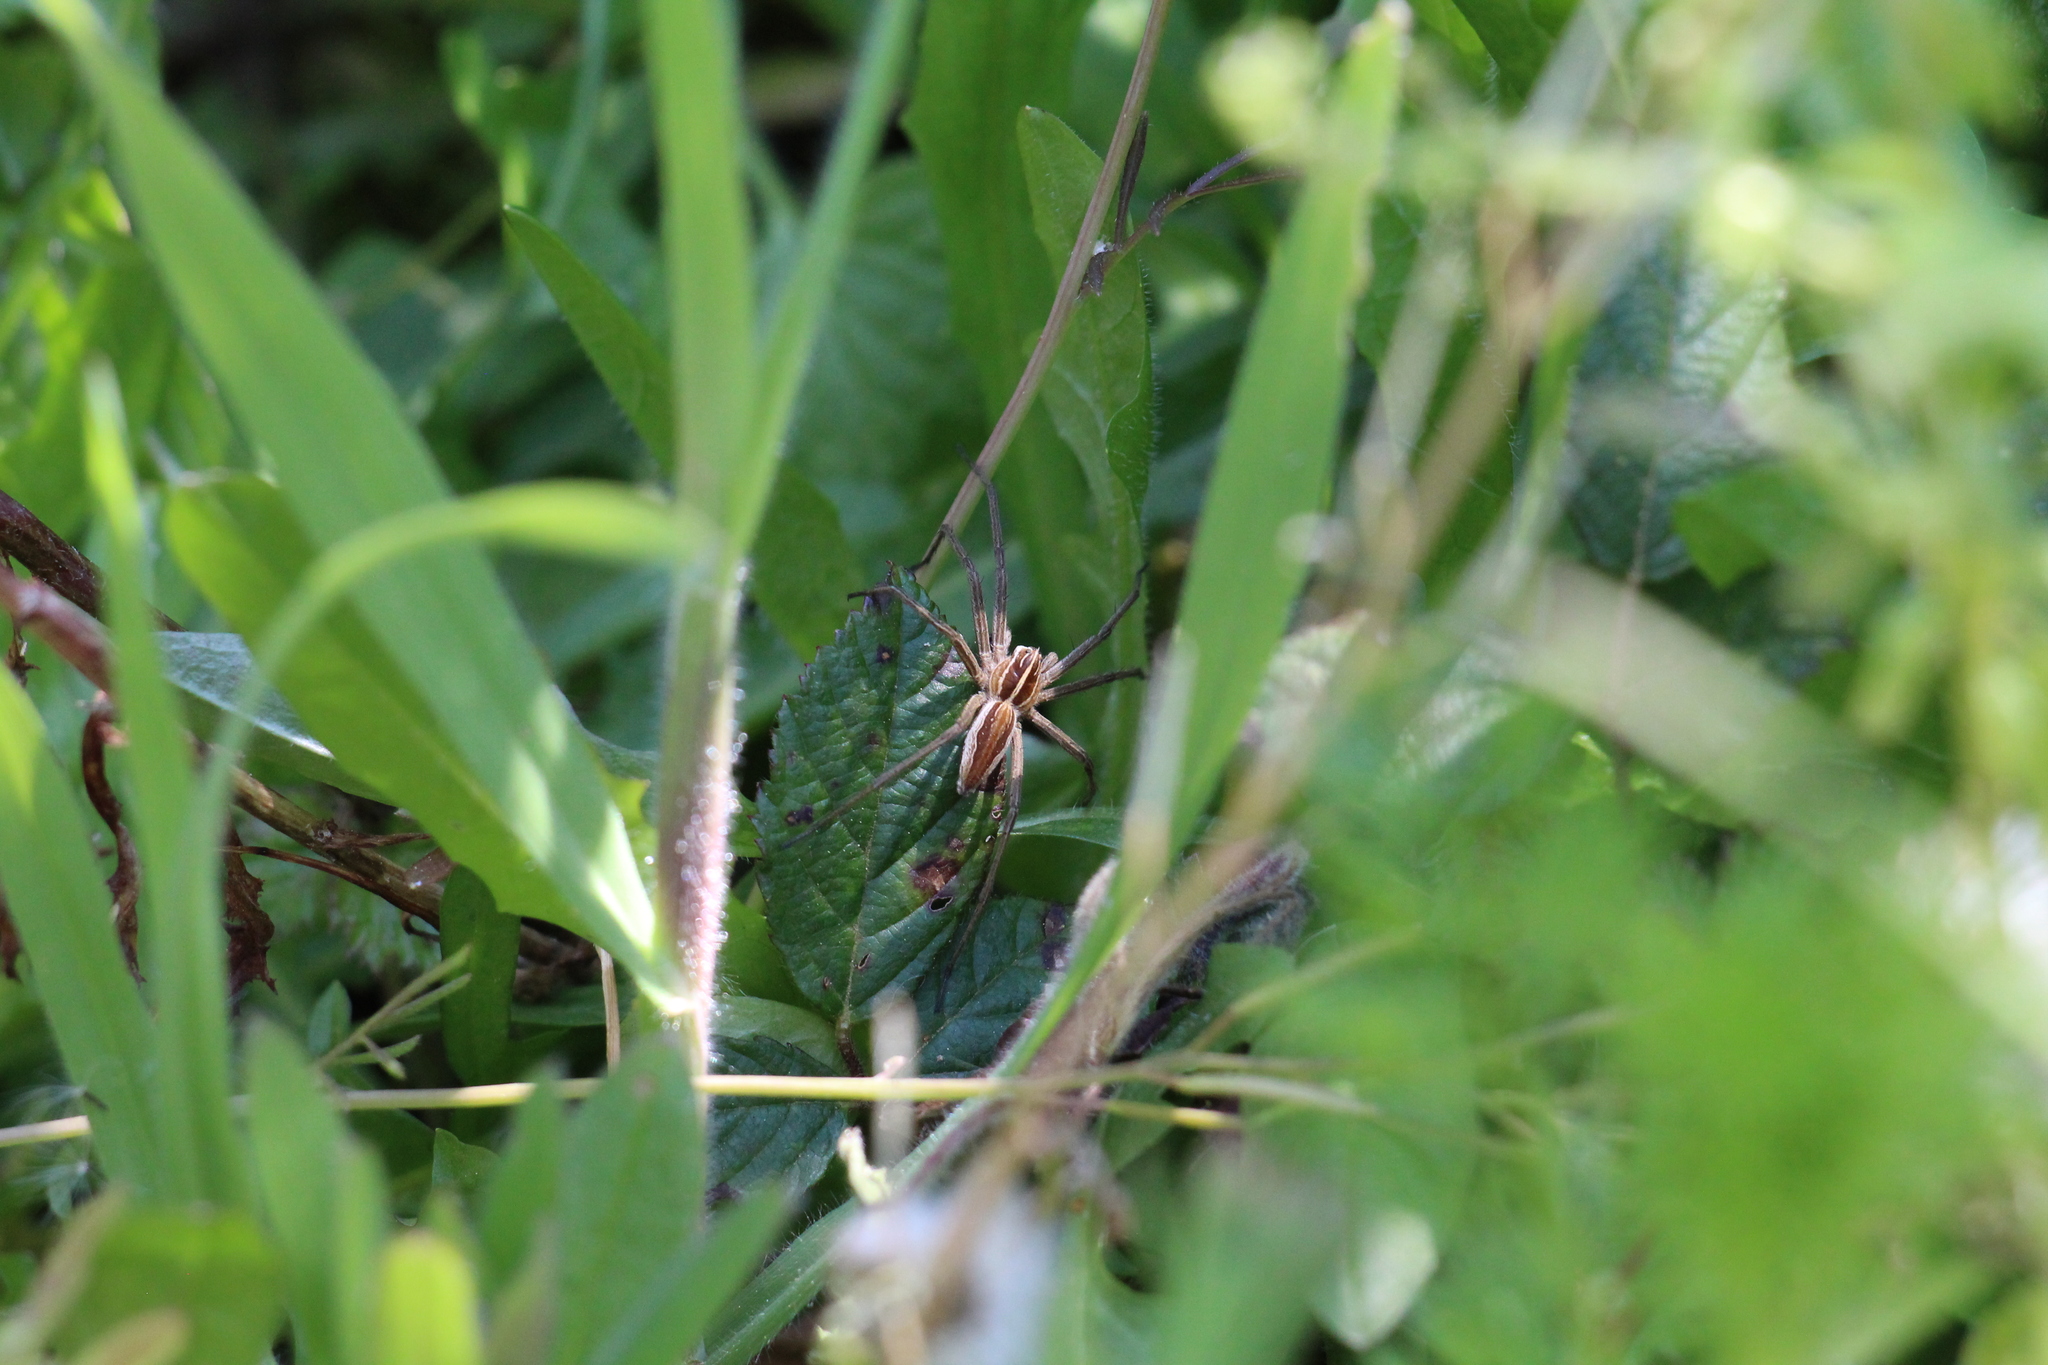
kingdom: Animalia
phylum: Arthropoda
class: Arachnida
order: Araneae
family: Pisauridae
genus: Pisaura
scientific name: Pisaura mirabilis
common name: Tent spider
